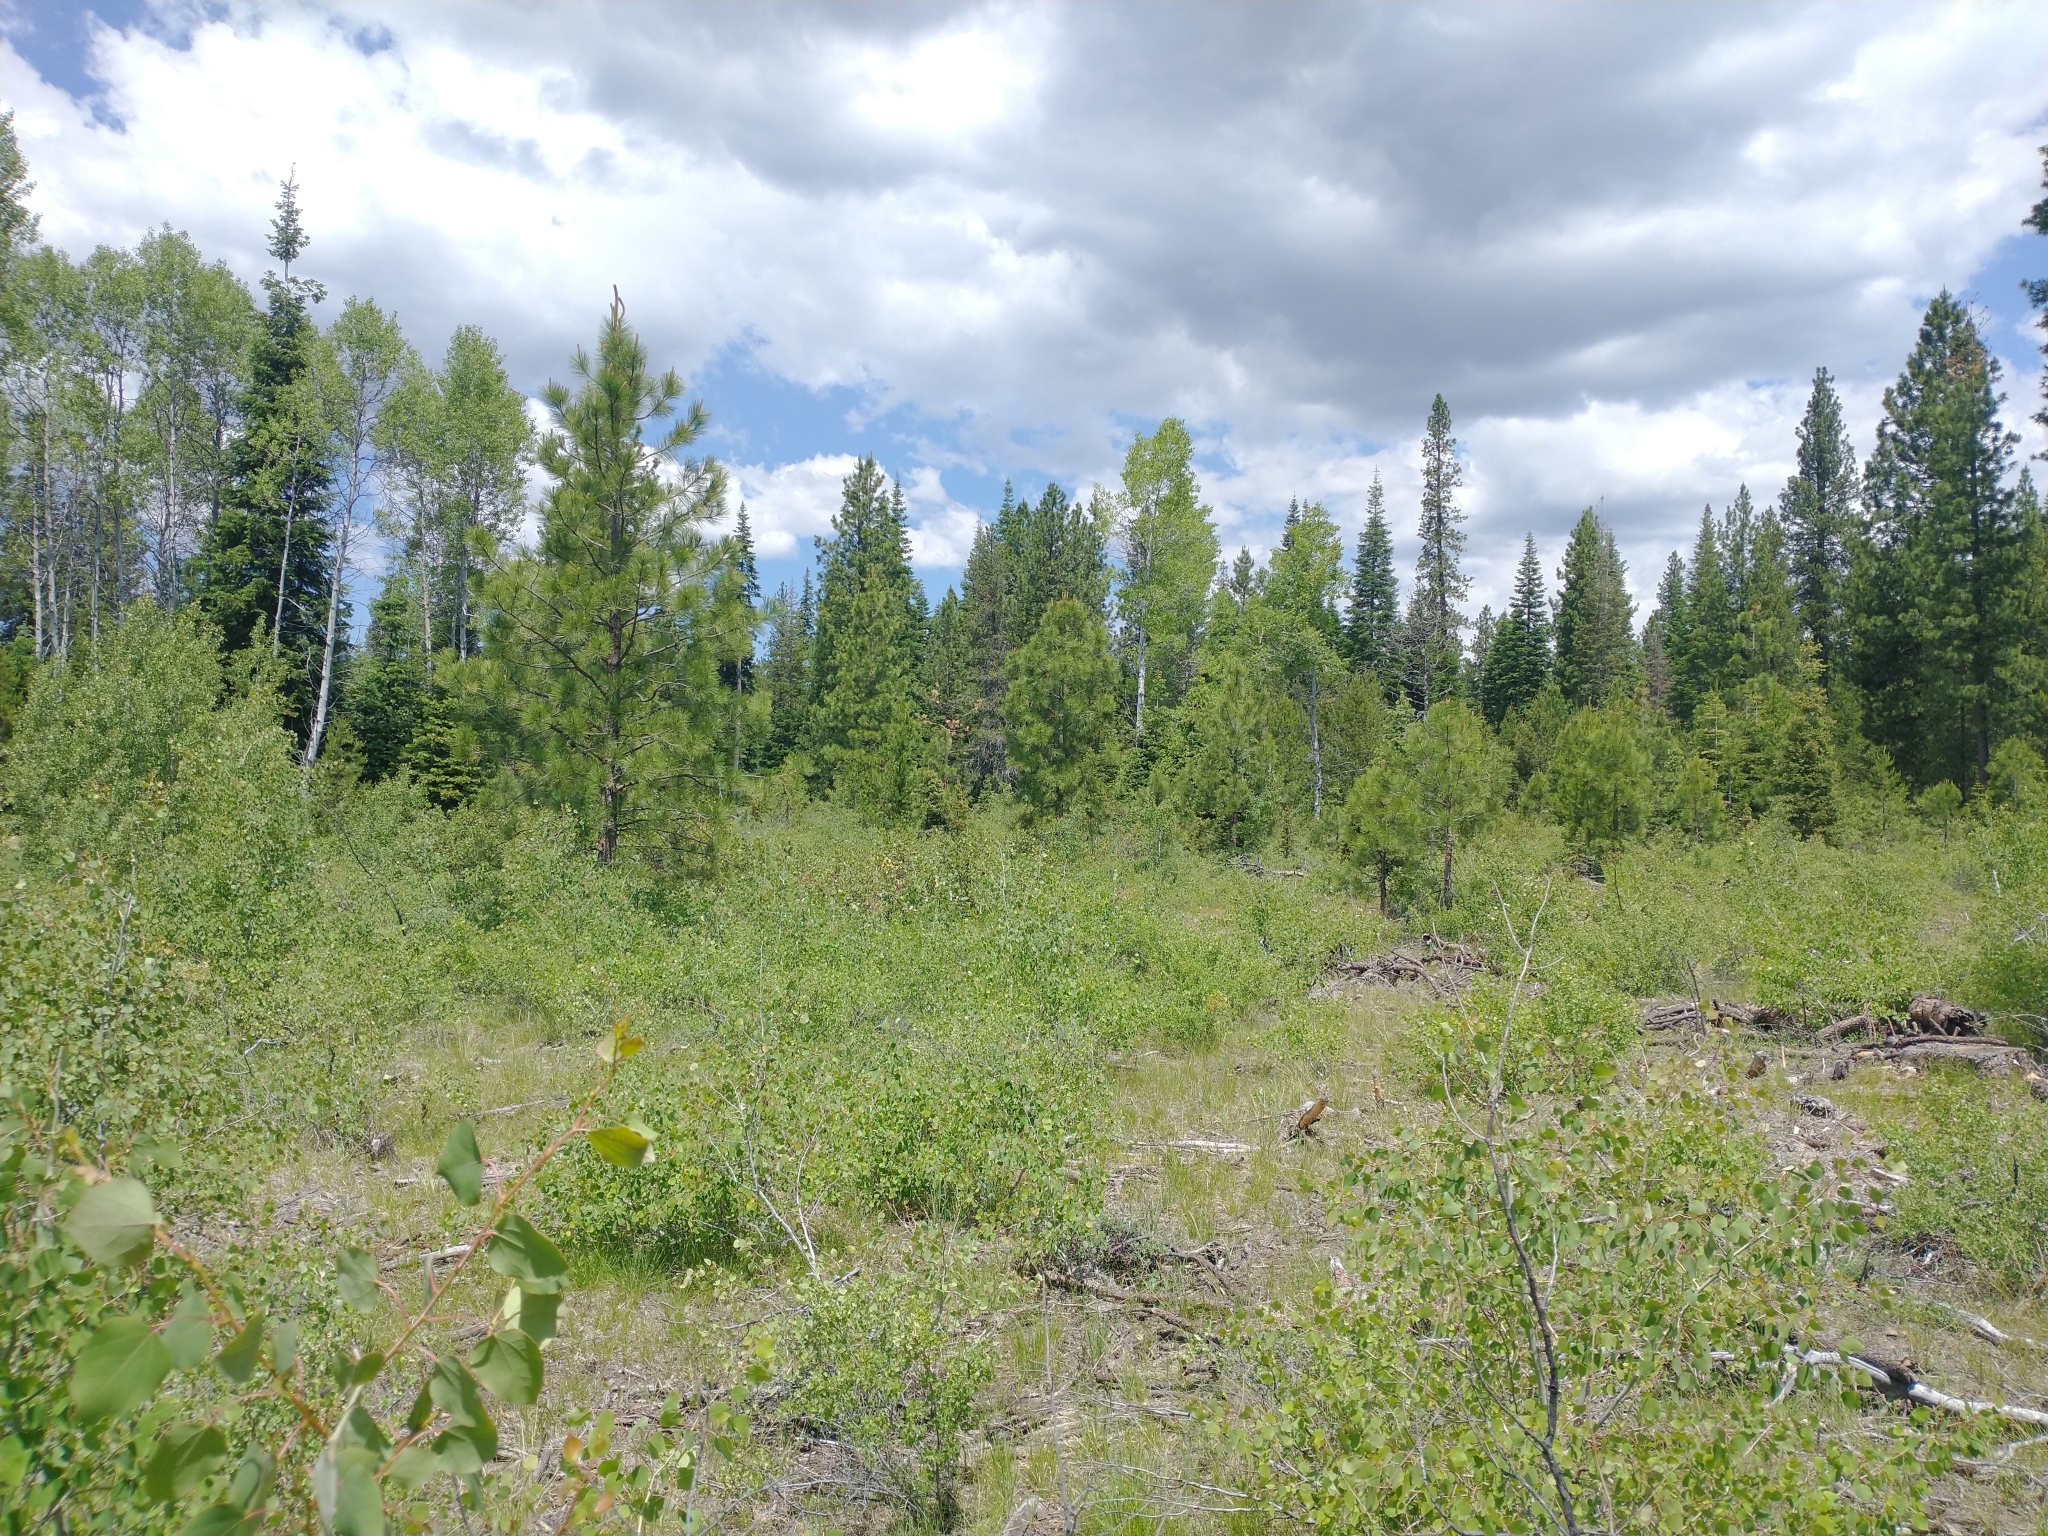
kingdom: Plantae
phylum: Tracheophyta
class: Magnoliopsida
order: Malpighiales
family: Salicaceae
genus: Populus
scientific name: Populus tremuloides
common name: Quaking aspen
